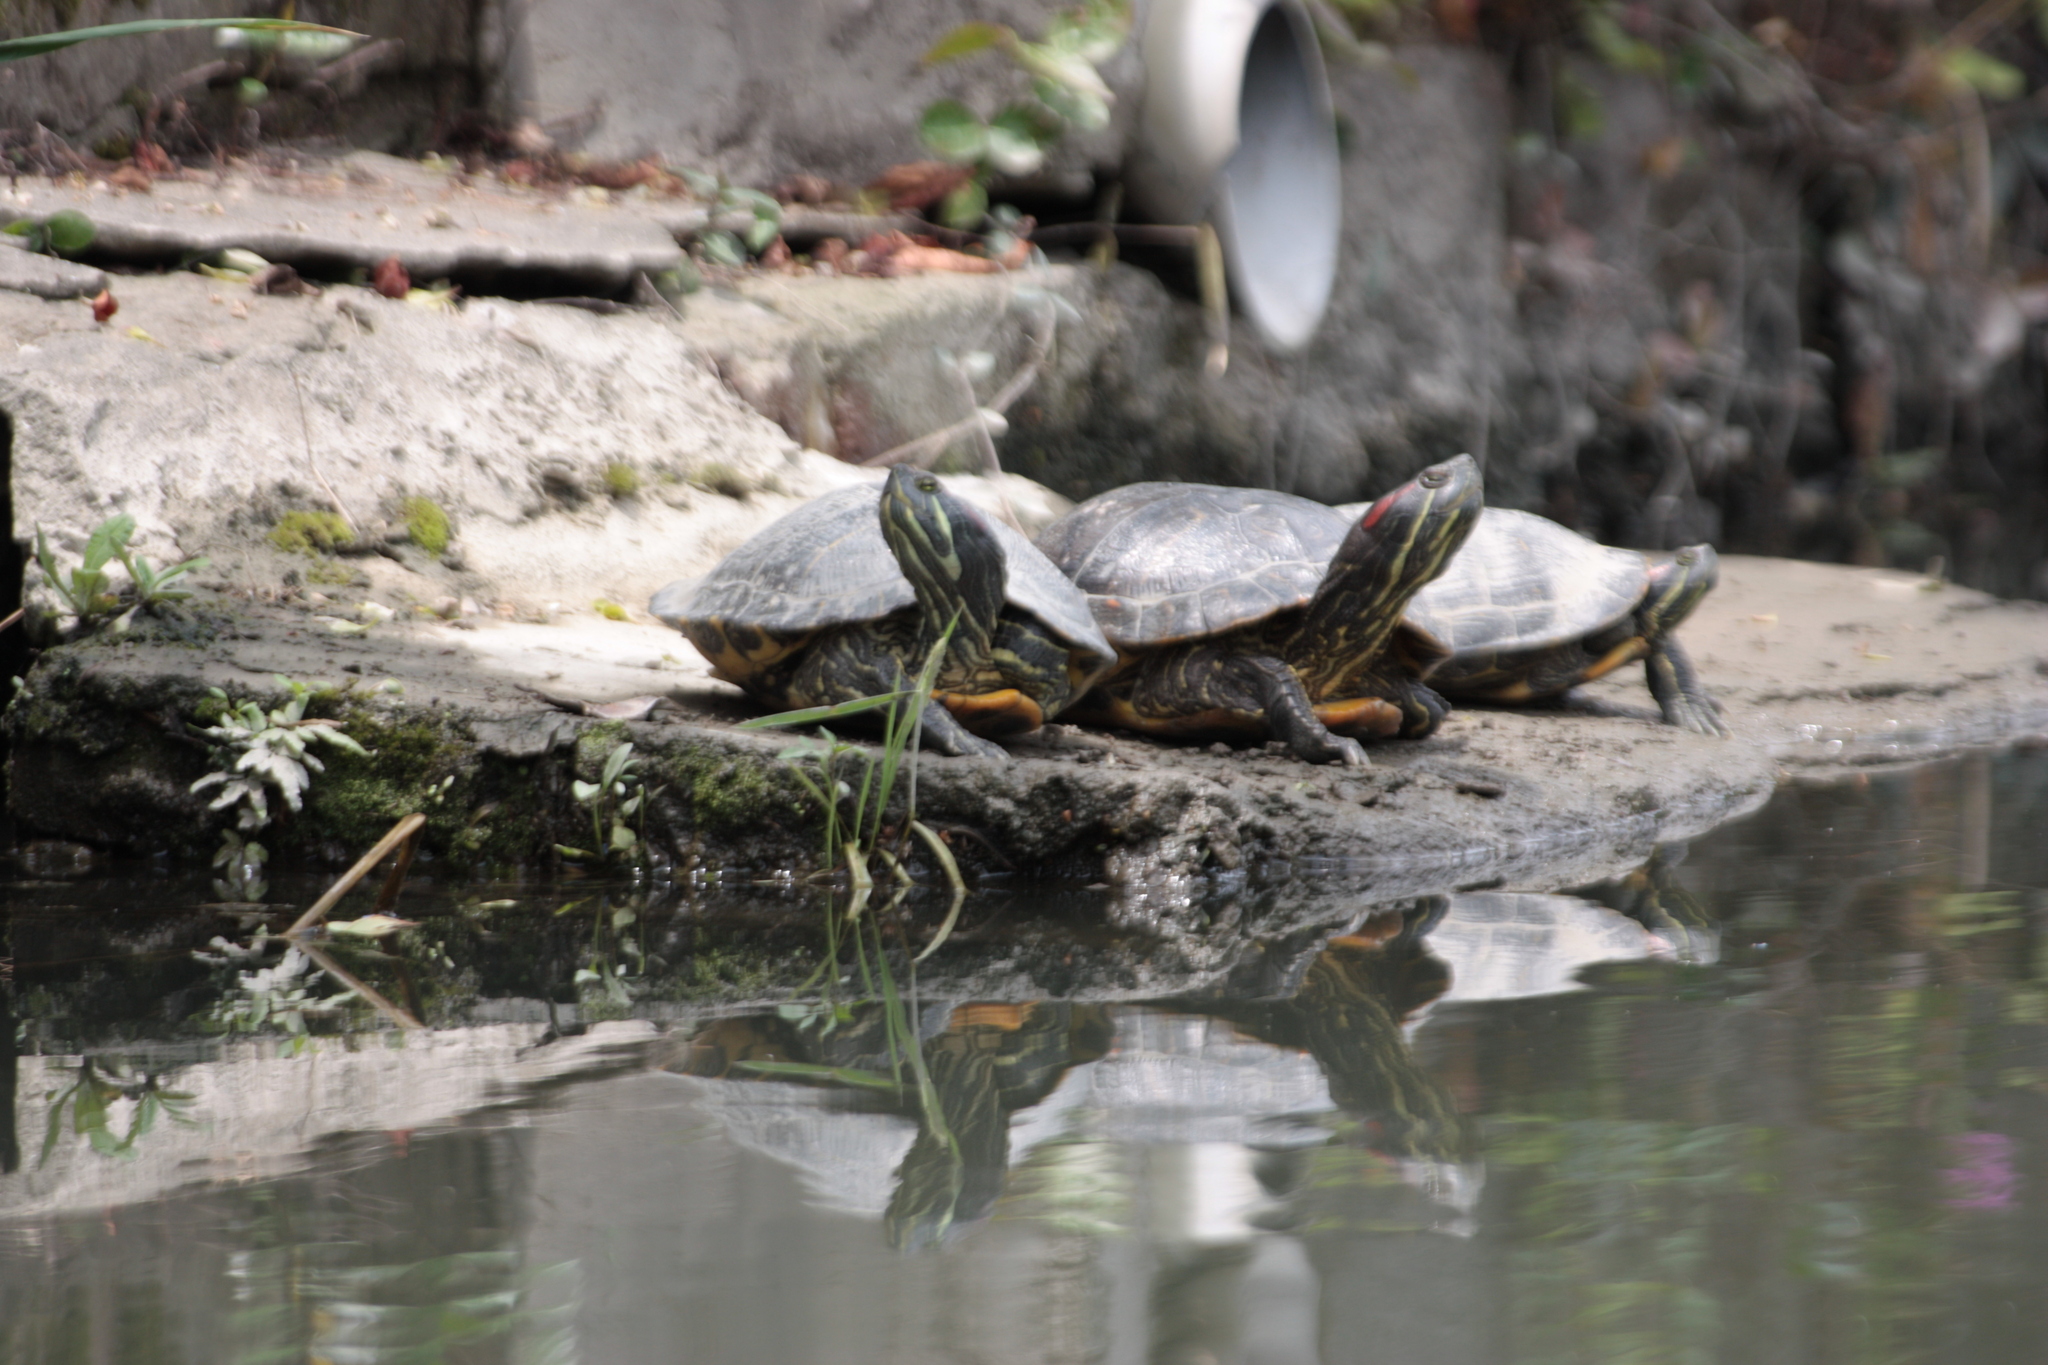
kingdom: Animalia
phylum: Chordata
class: Testudines
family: Emydidae
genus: Trachemys
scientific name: Trachemys scripta
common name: Slider
